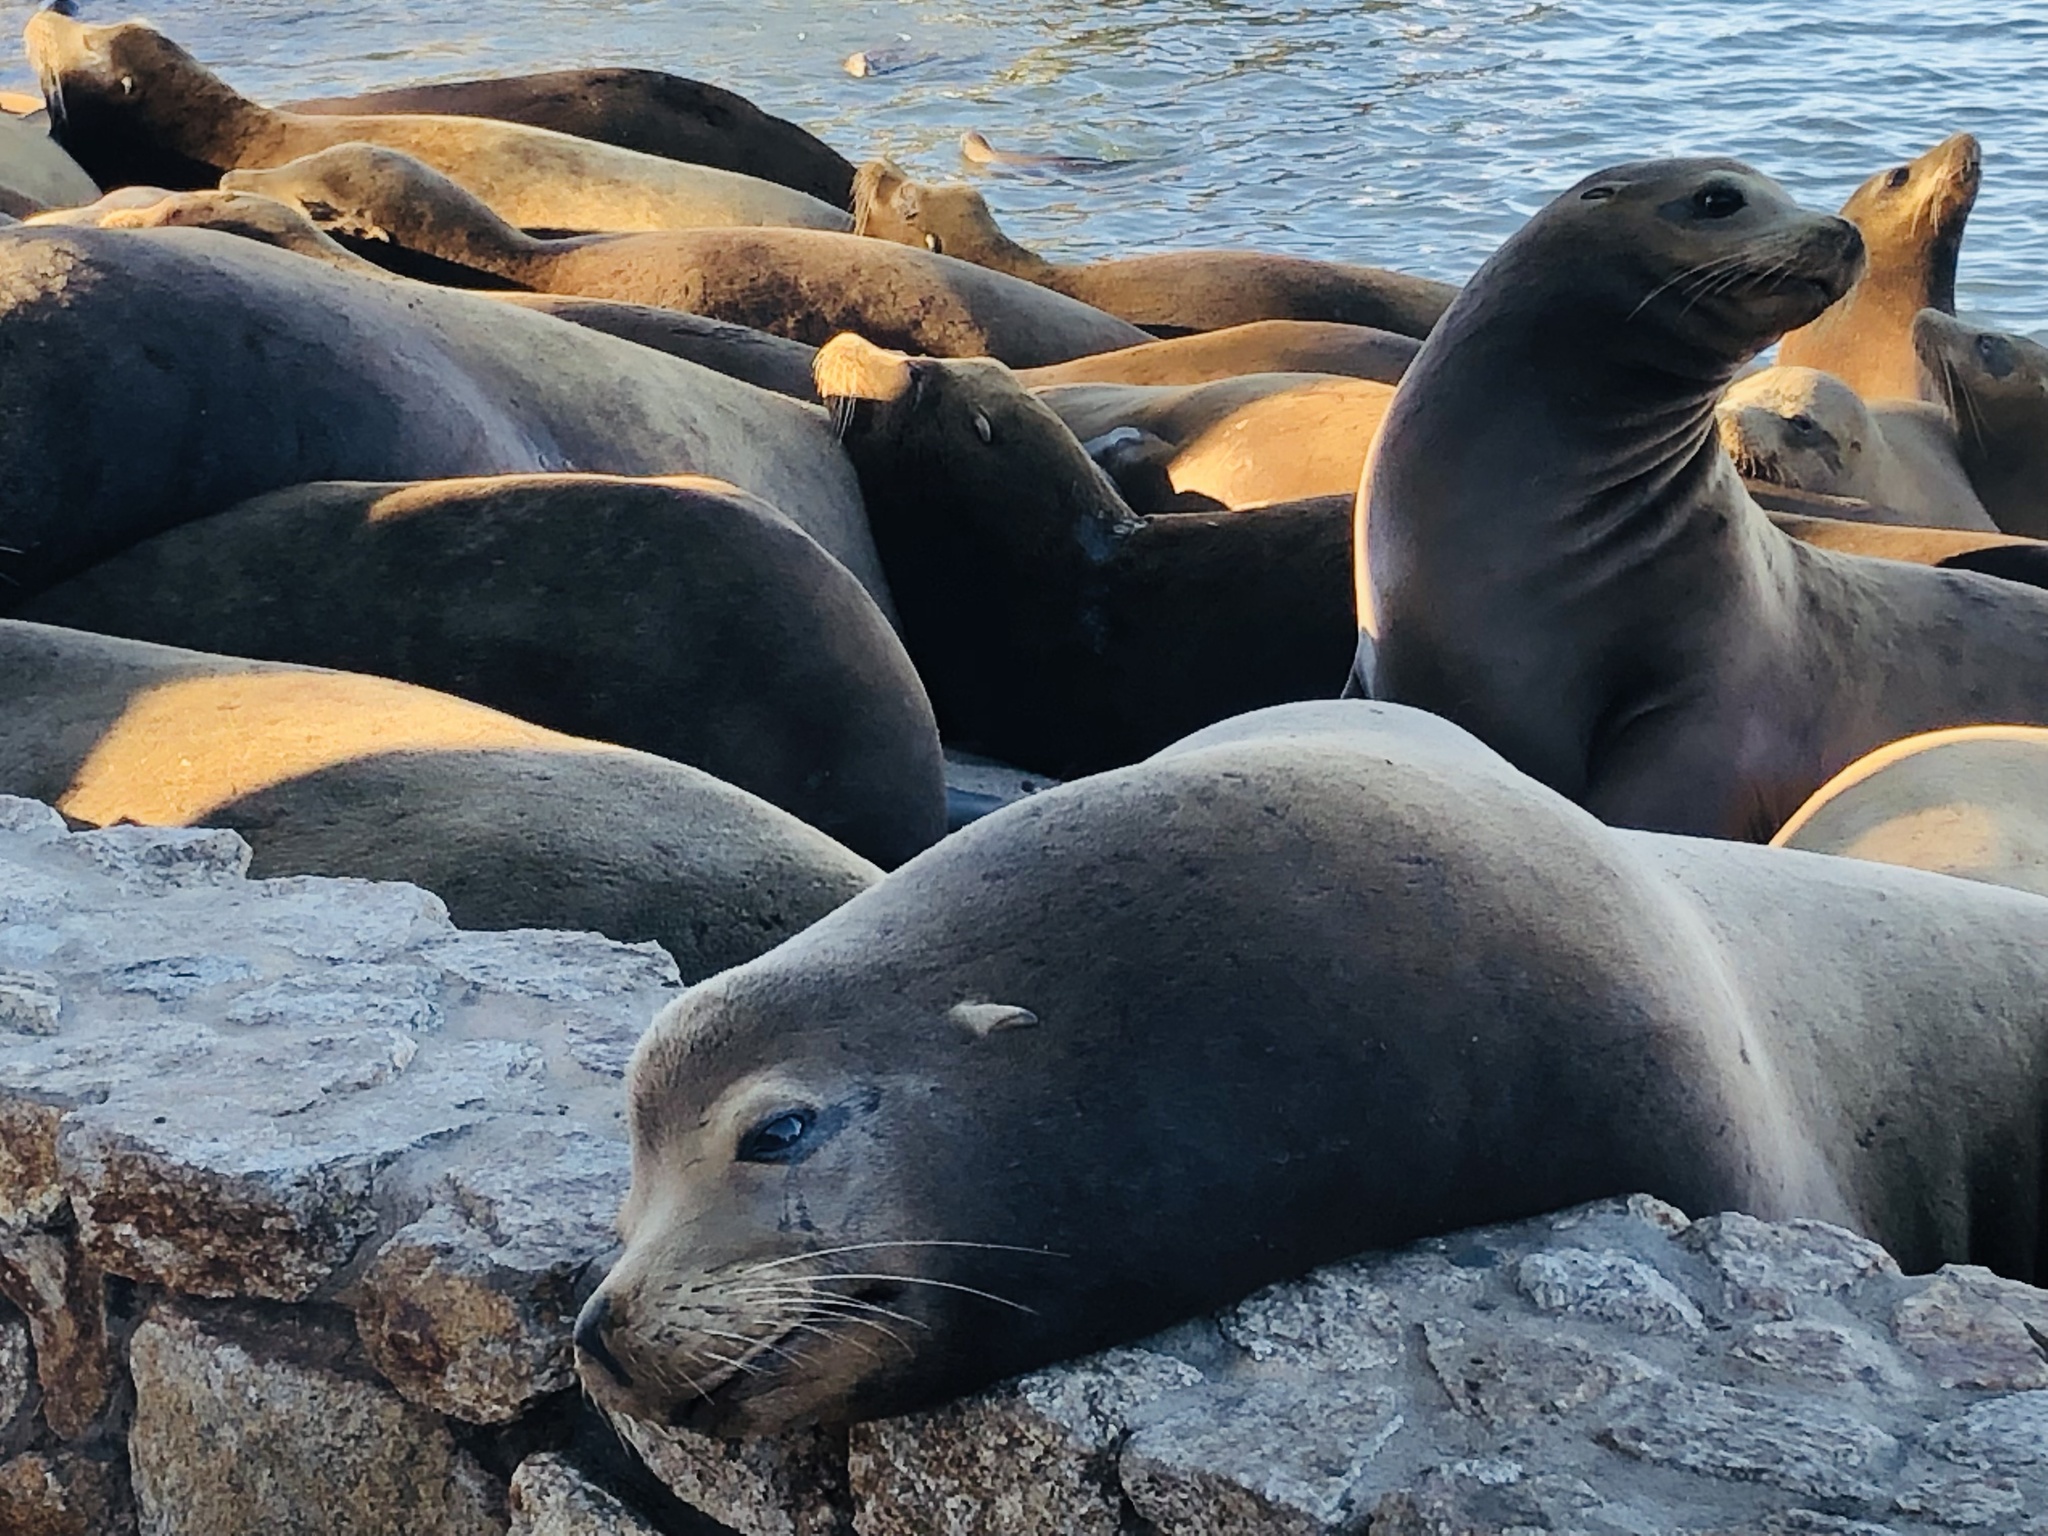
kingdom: Animalia
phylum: Chordata
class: Mammalia
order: Carnivora
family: Otariidae
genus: Zalophus
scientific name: Zalophus californianus
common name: California sea lion
